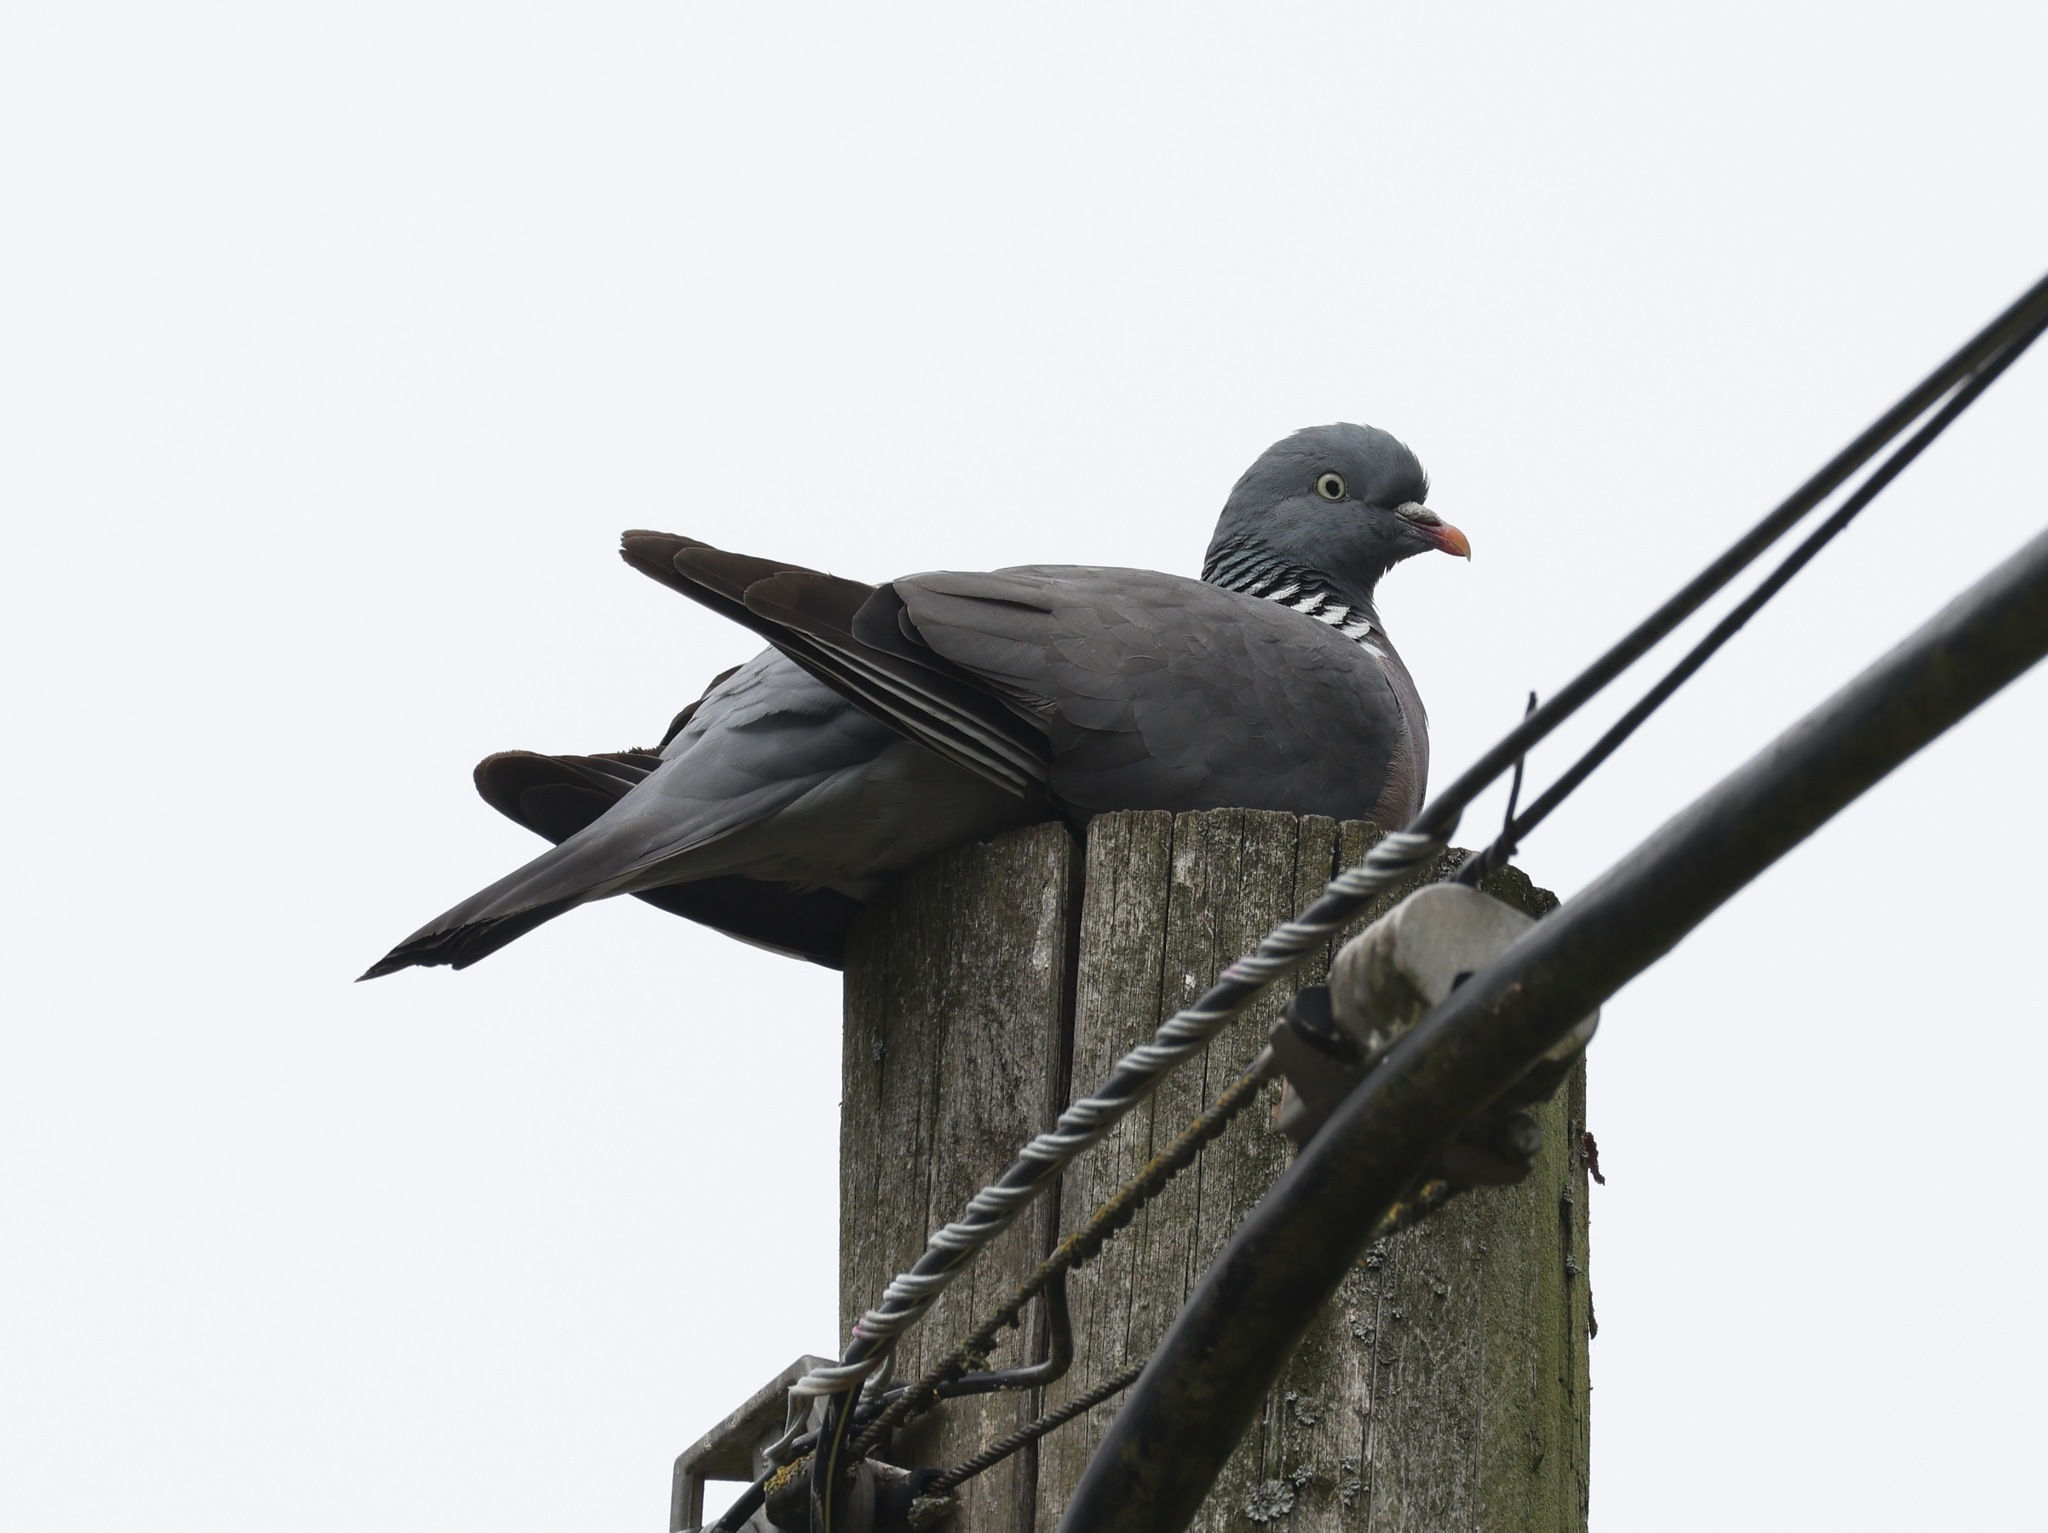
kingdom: Animalia
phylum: Chordata
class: Aves
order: Columbiformes
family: Columbidae
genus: Columba
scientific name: Columba palumbus
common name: Common wood pigeon
